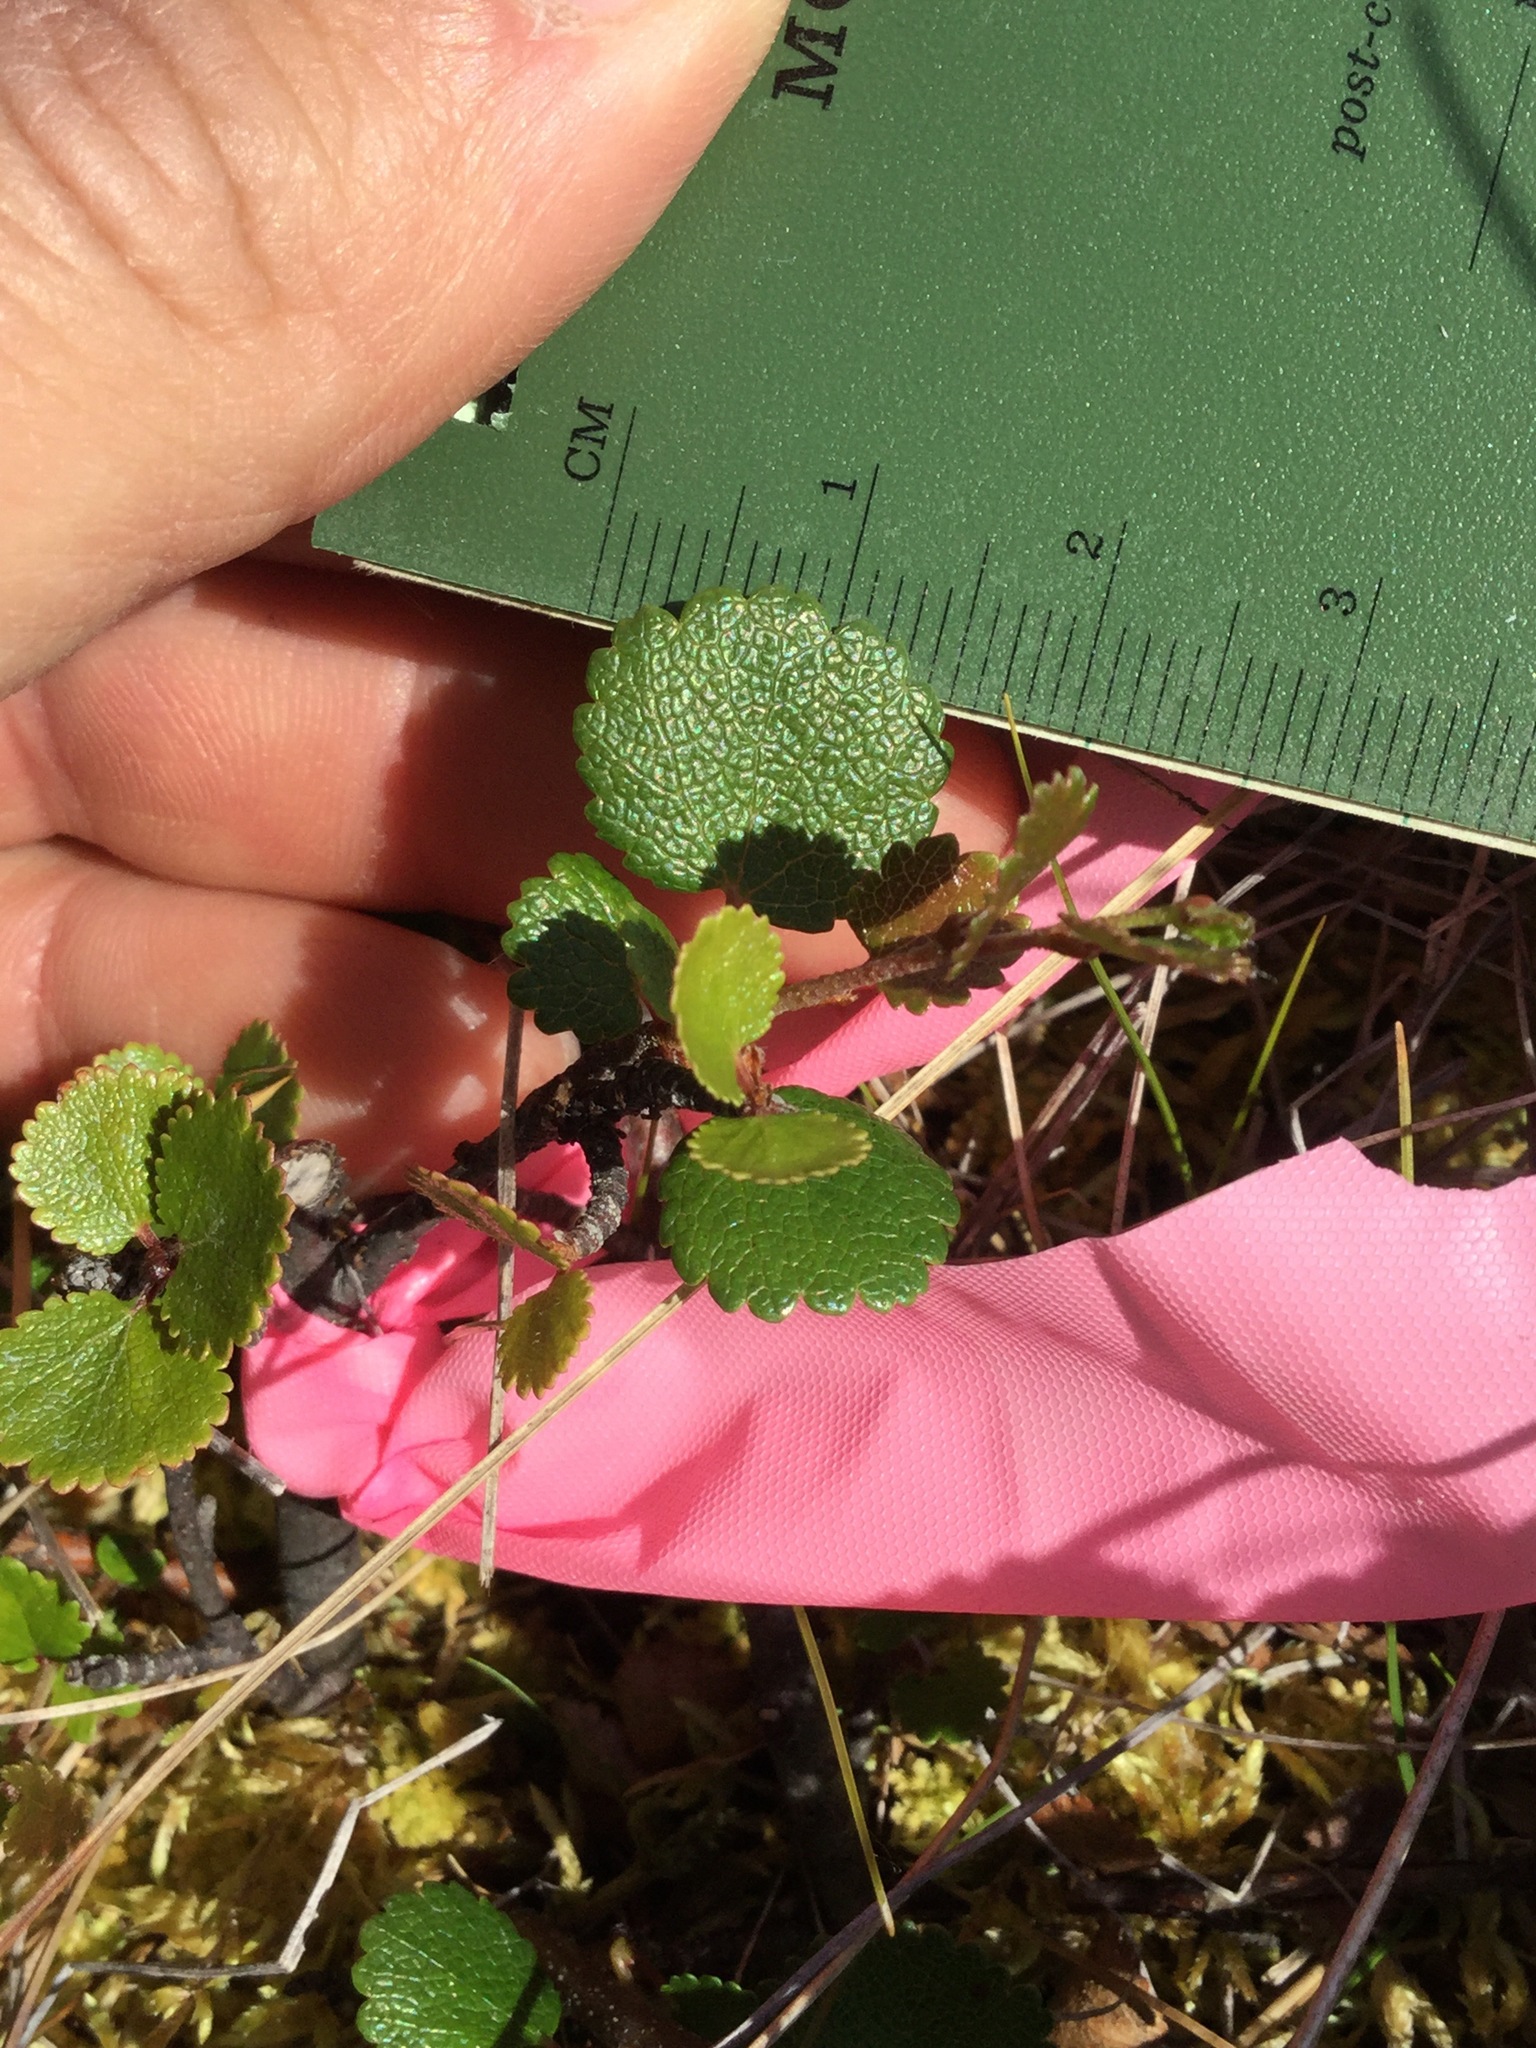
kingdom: Plantae
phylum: Tracheophyta
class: Magnoliopsida
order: Fagales
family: Betulaceae
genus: Betula
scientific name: Betula nana
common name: Arctic dwarf birch
